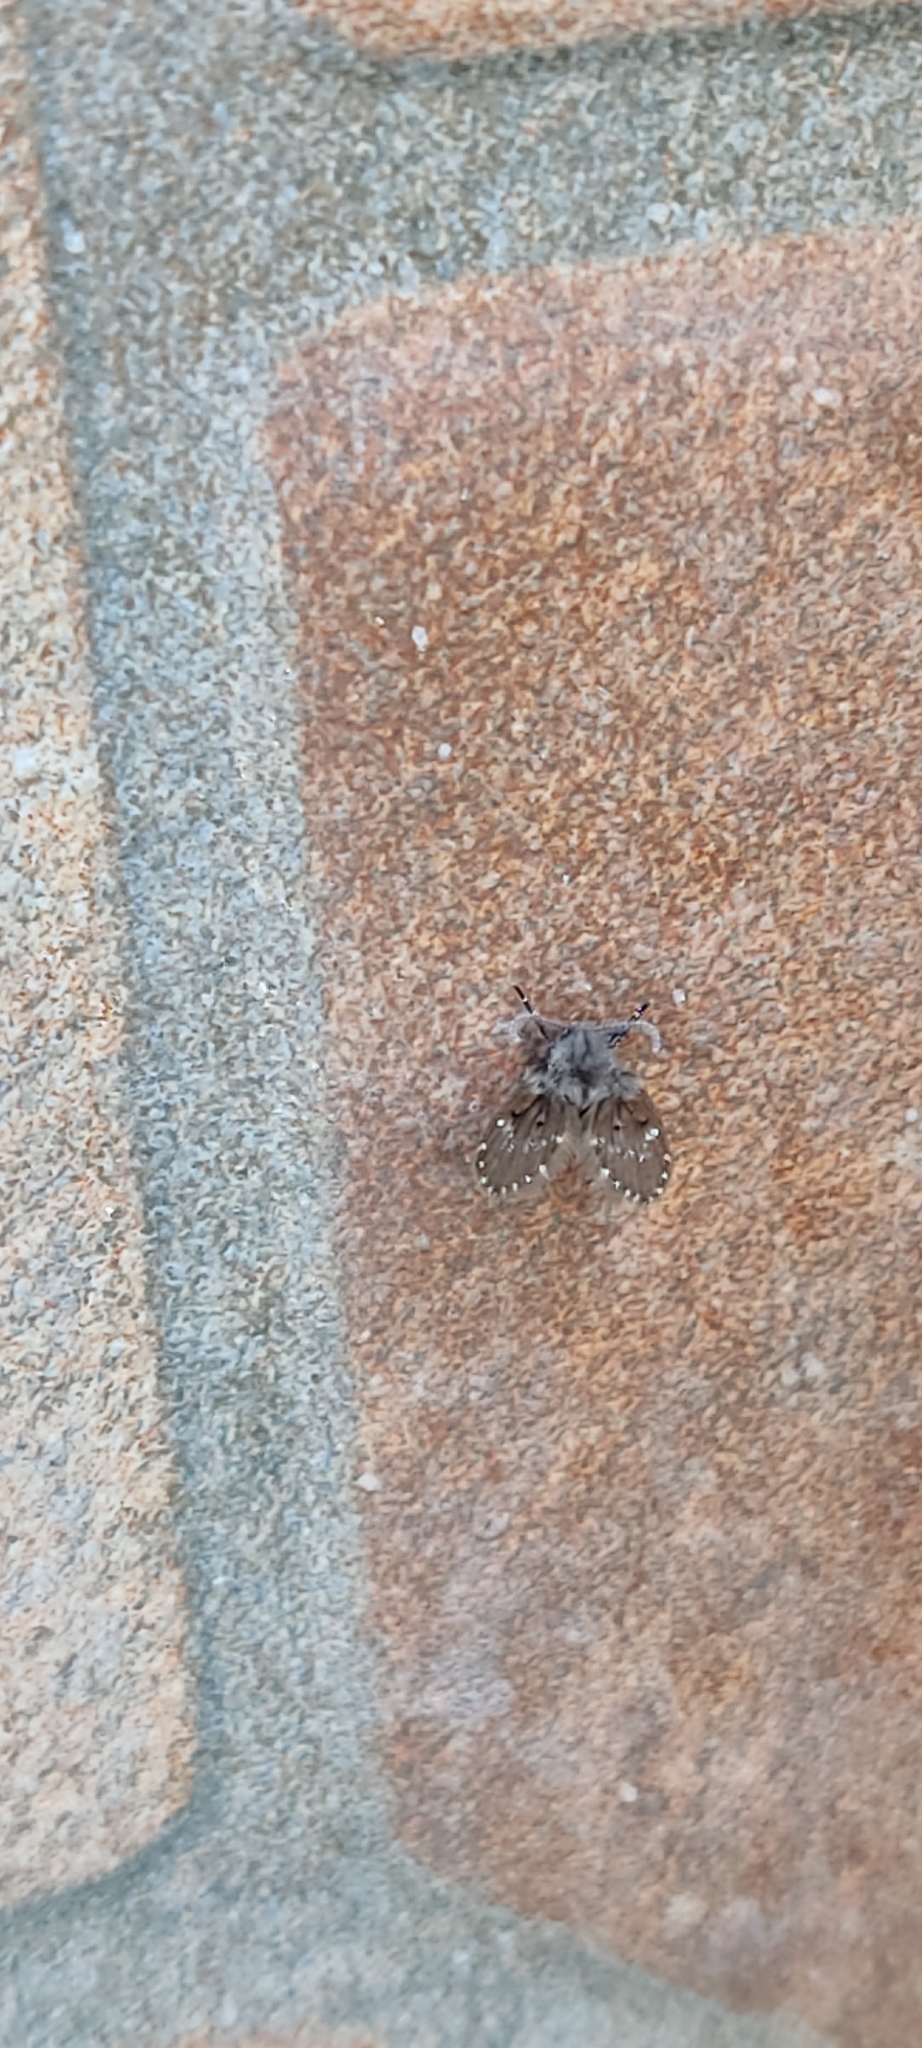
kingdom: Animalia
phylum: Arthropoda
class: Insecta
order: Diptera
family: Psychodidae
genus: Clogmia
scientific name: Clogmia albipunctatus
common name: White-spotted moth fly
